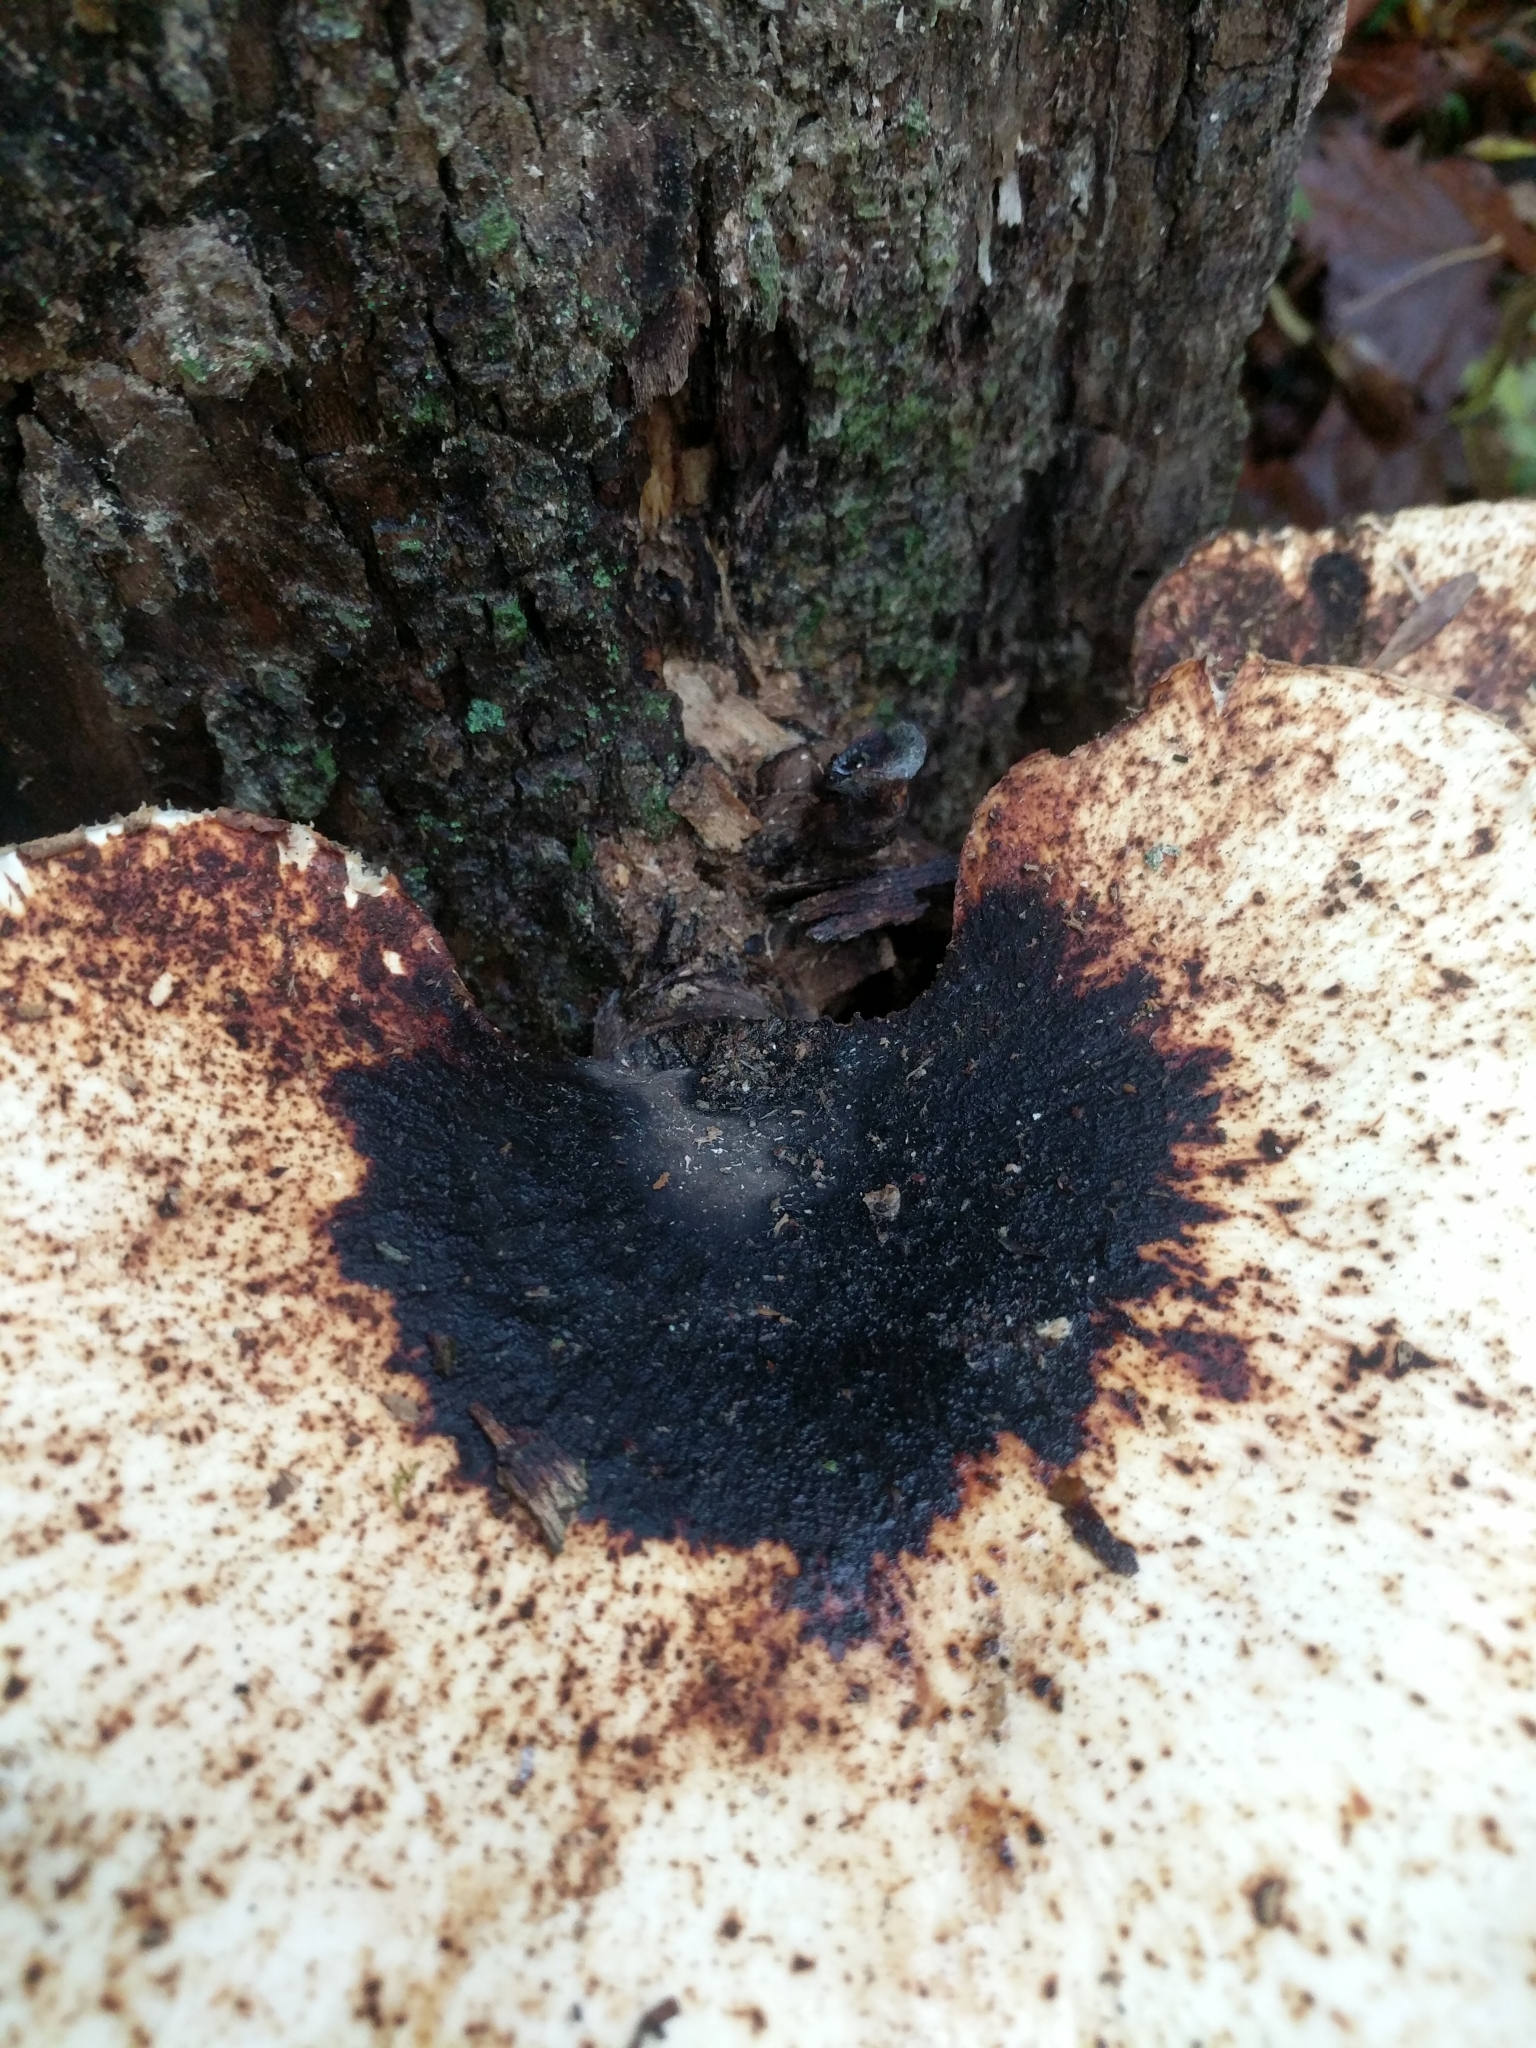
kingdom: Fungi
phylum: Basidiomycota
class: Agaricomycetes
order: Polyporales
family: Polyporaceae
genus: Cerioporus
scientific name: Cerioporus squamosus
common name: Dryad's saddle
